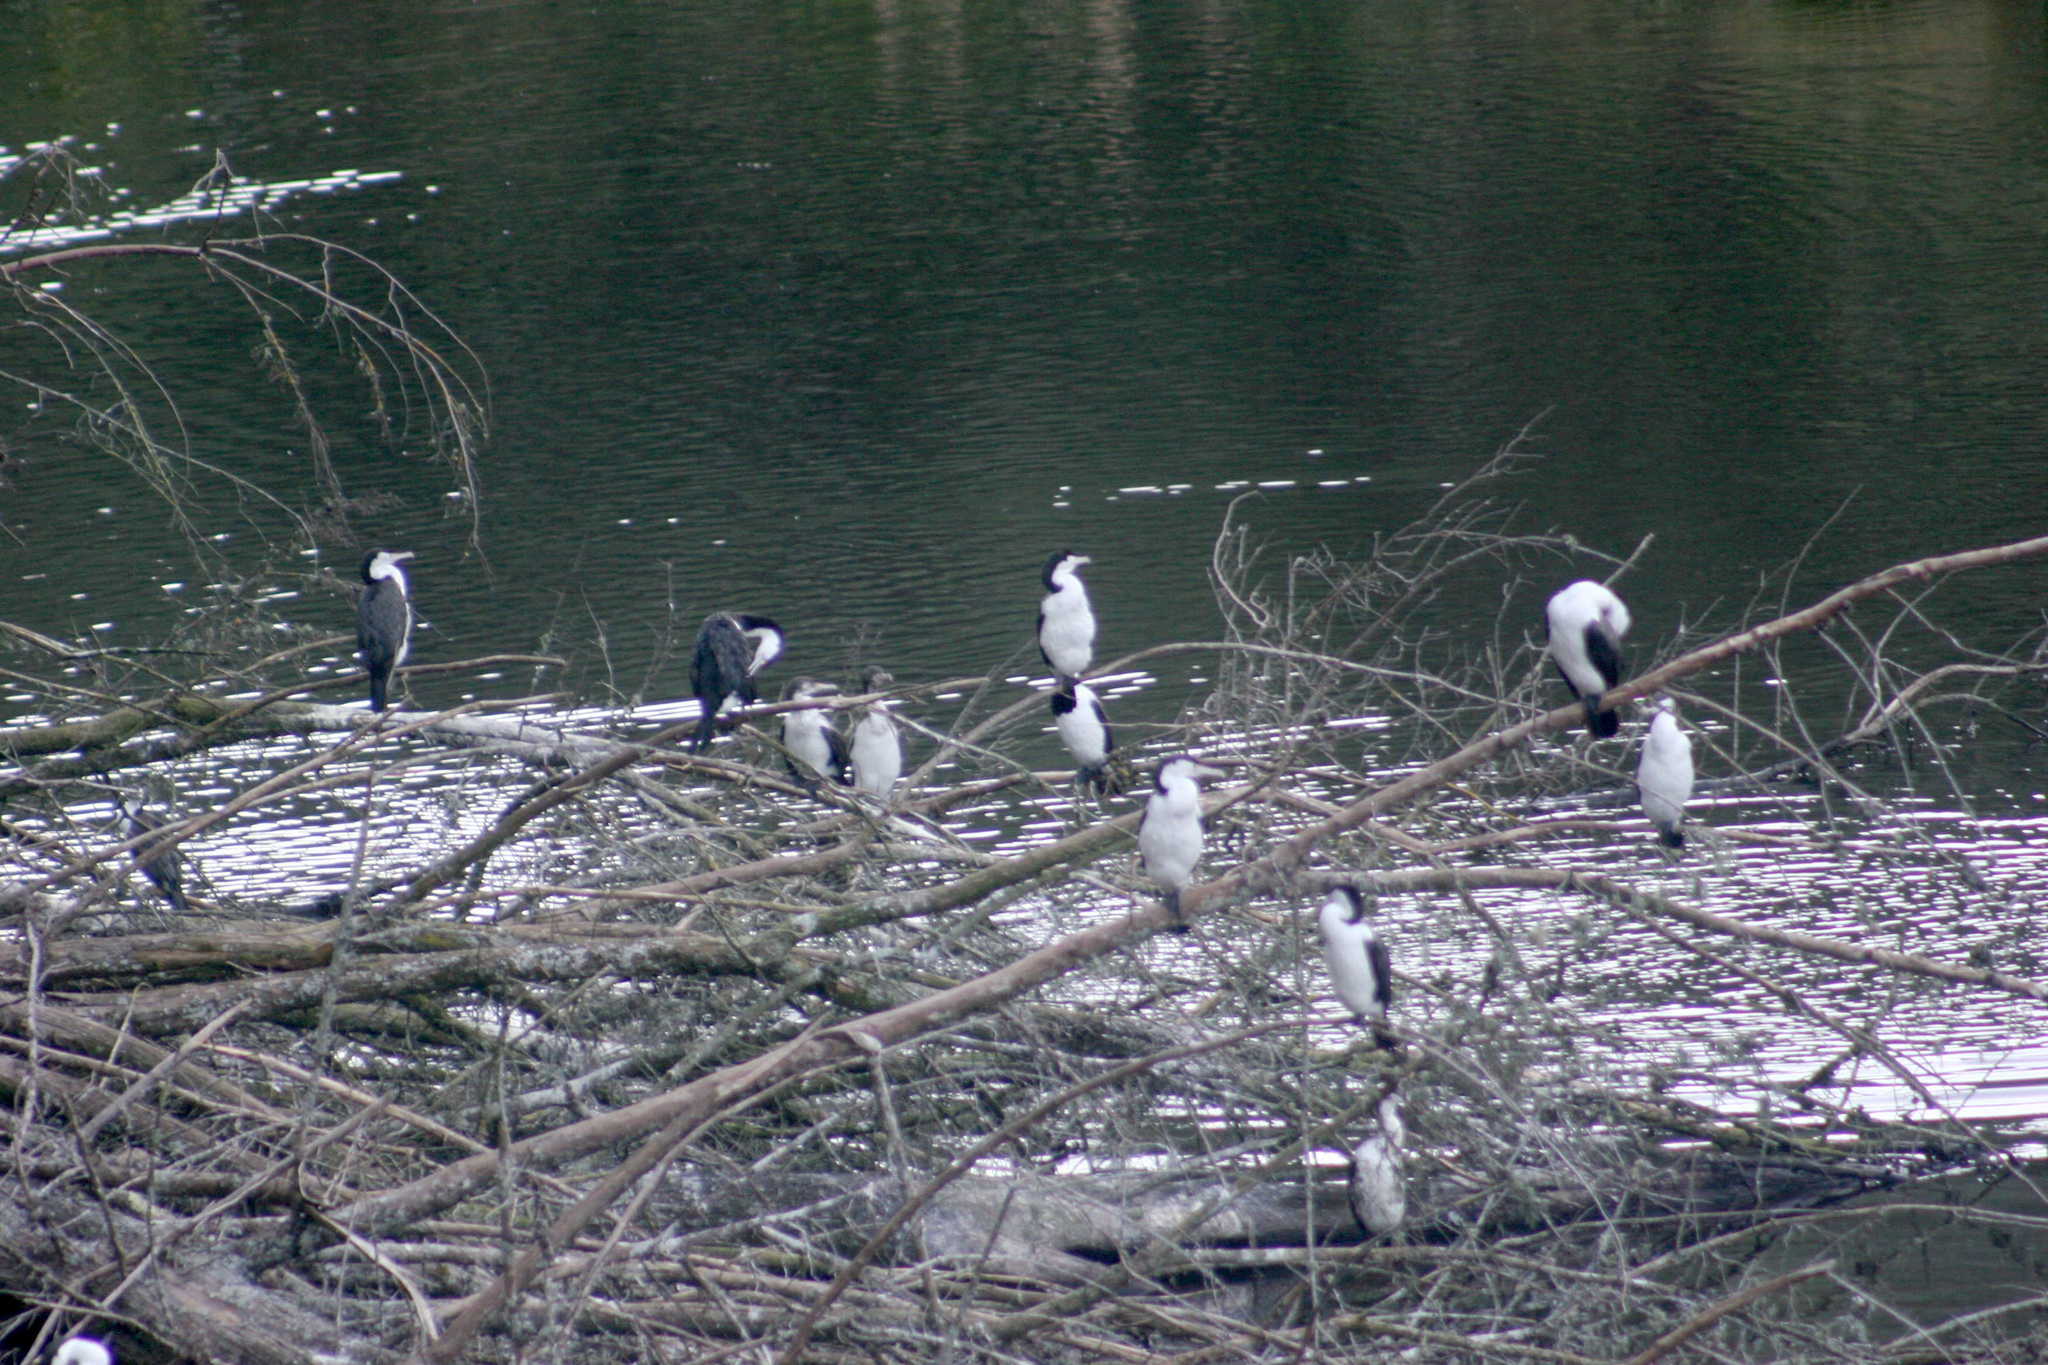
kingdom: Animalia
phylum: Chordata
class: Aves
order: Suliformes
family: Phalacrocoracidae
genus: Phalacrocorax
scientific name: Phalacrocorax varius
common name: Pied cormorant
